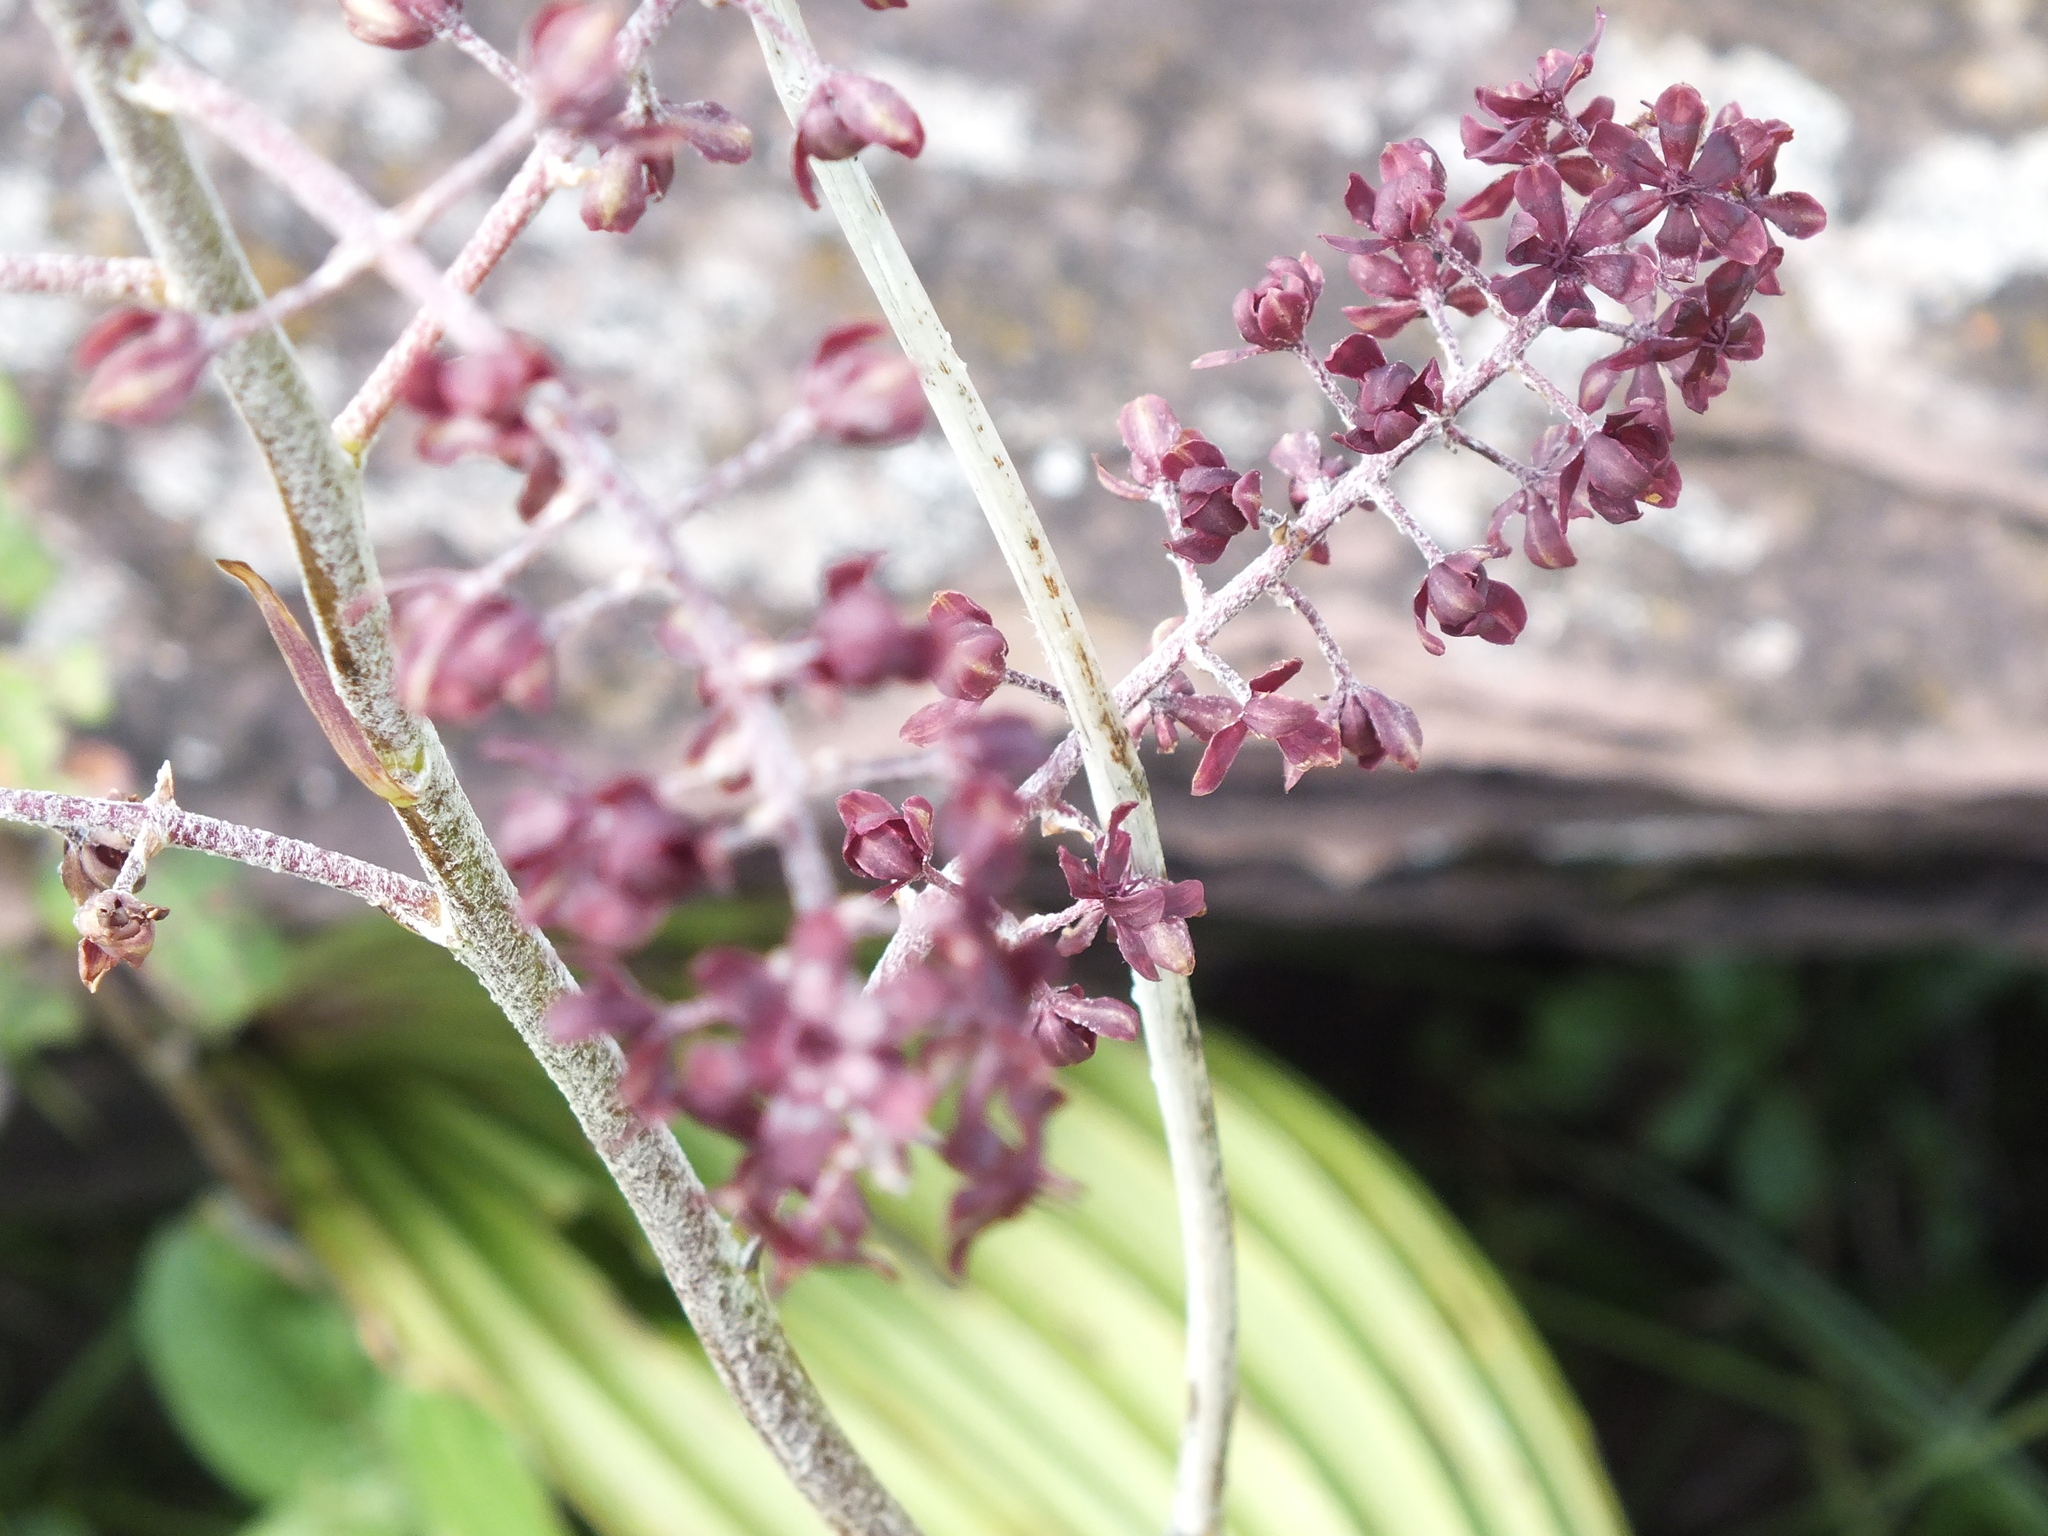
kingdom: Plantae
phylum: Tracheophyta
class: Liliopsida
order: Liliales
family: Melanthiaceae
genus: Veratrum
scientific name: Veratrum nigrum
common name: Black veratrum
